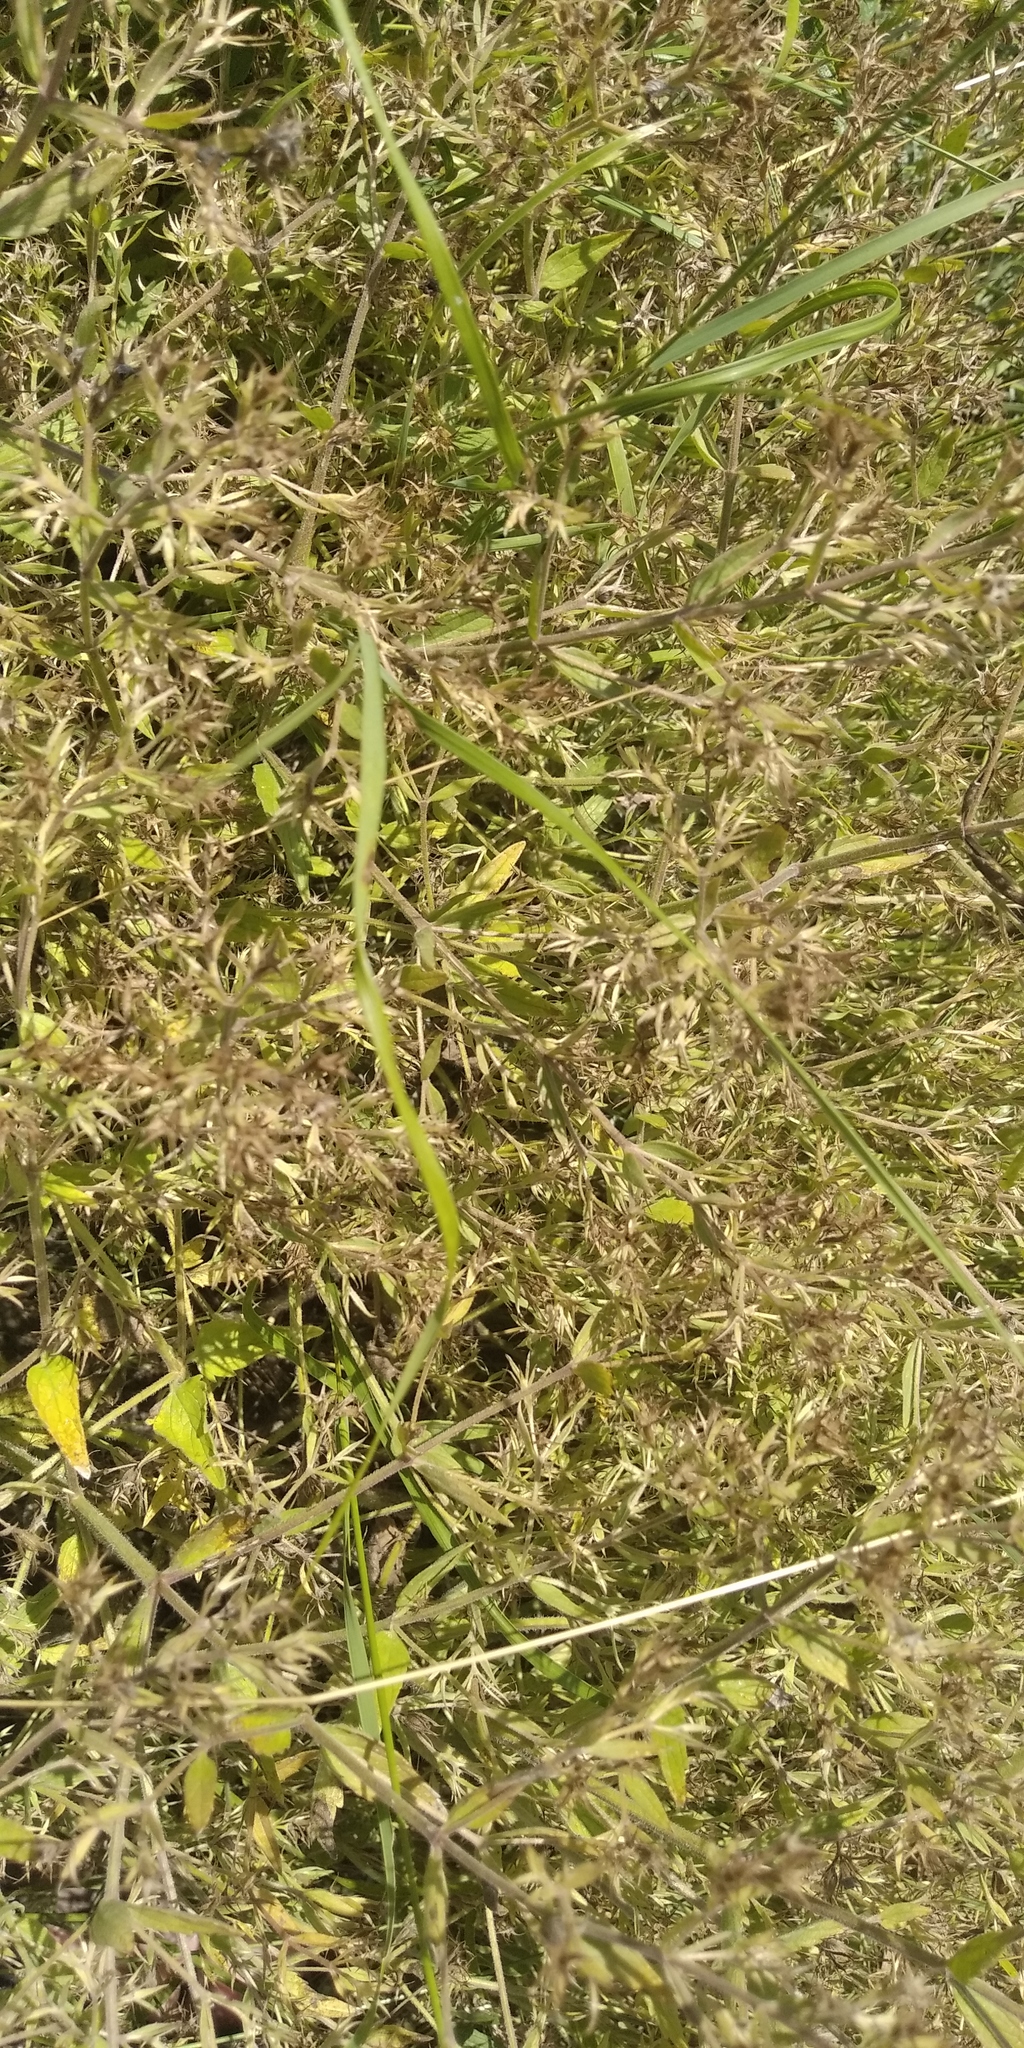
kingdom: Plantae
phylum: Tracheophyta
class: Magnoliopsida
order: Lamiales
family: Lamiaceae
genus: Nepeta
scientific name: Nepeta
